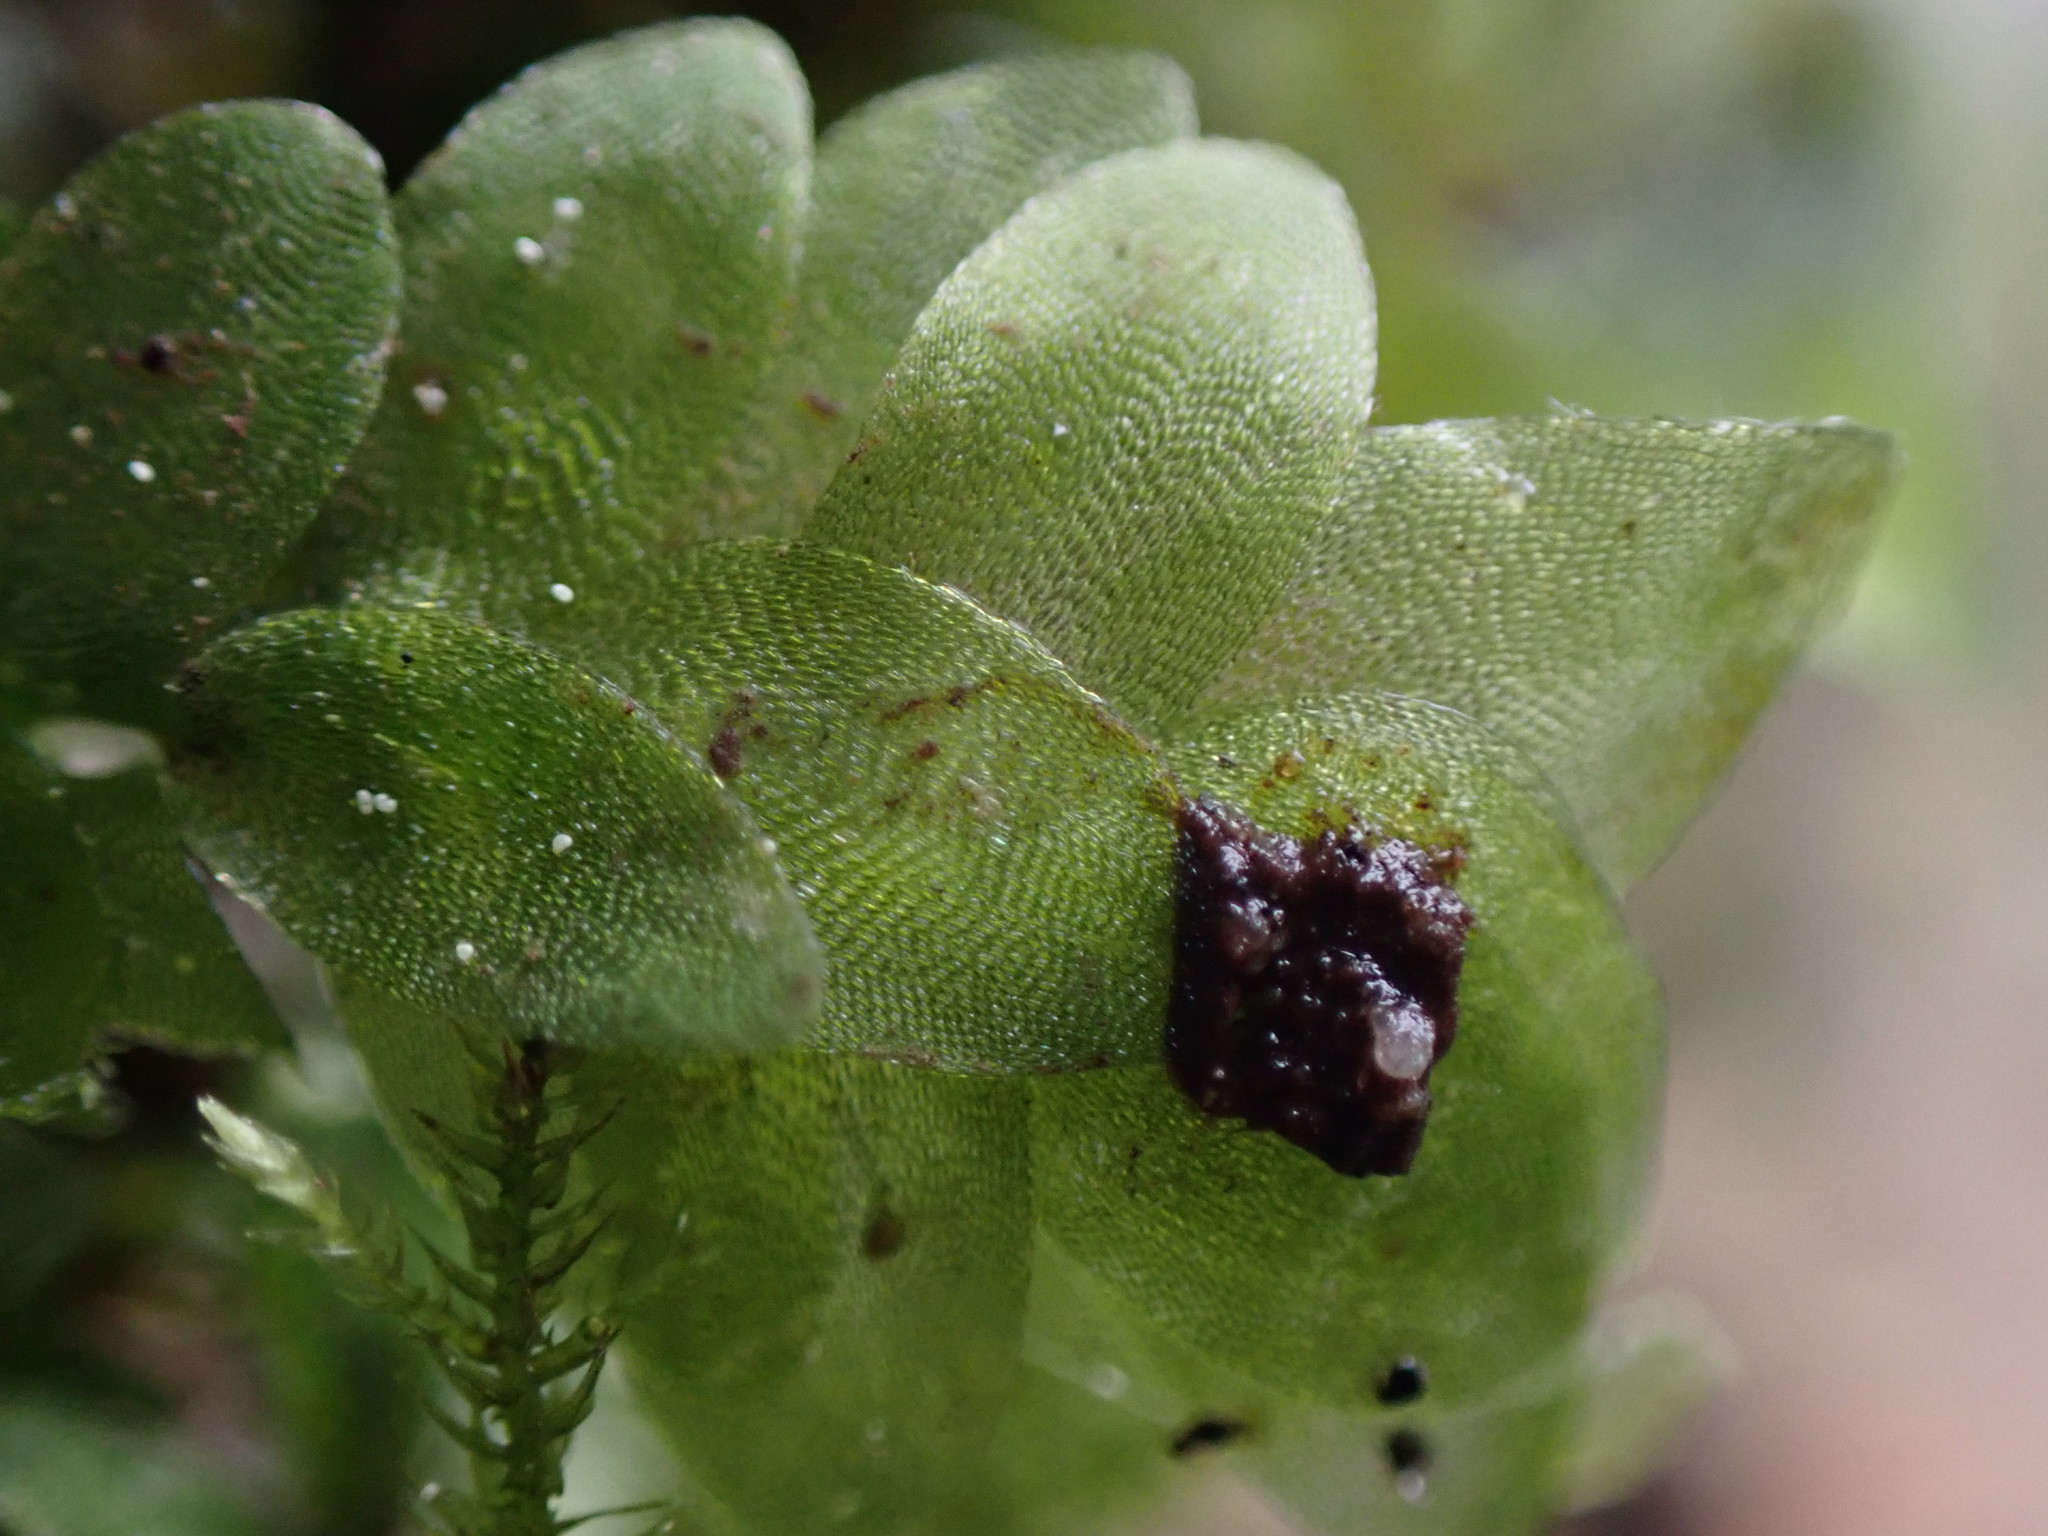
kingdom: Plantae
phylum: Bryophyta
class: Bryopsida
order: Hookeriales
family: Hookeriaceae
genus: Hookeria
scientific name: Hookeria lucens
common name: Shining hookeria
